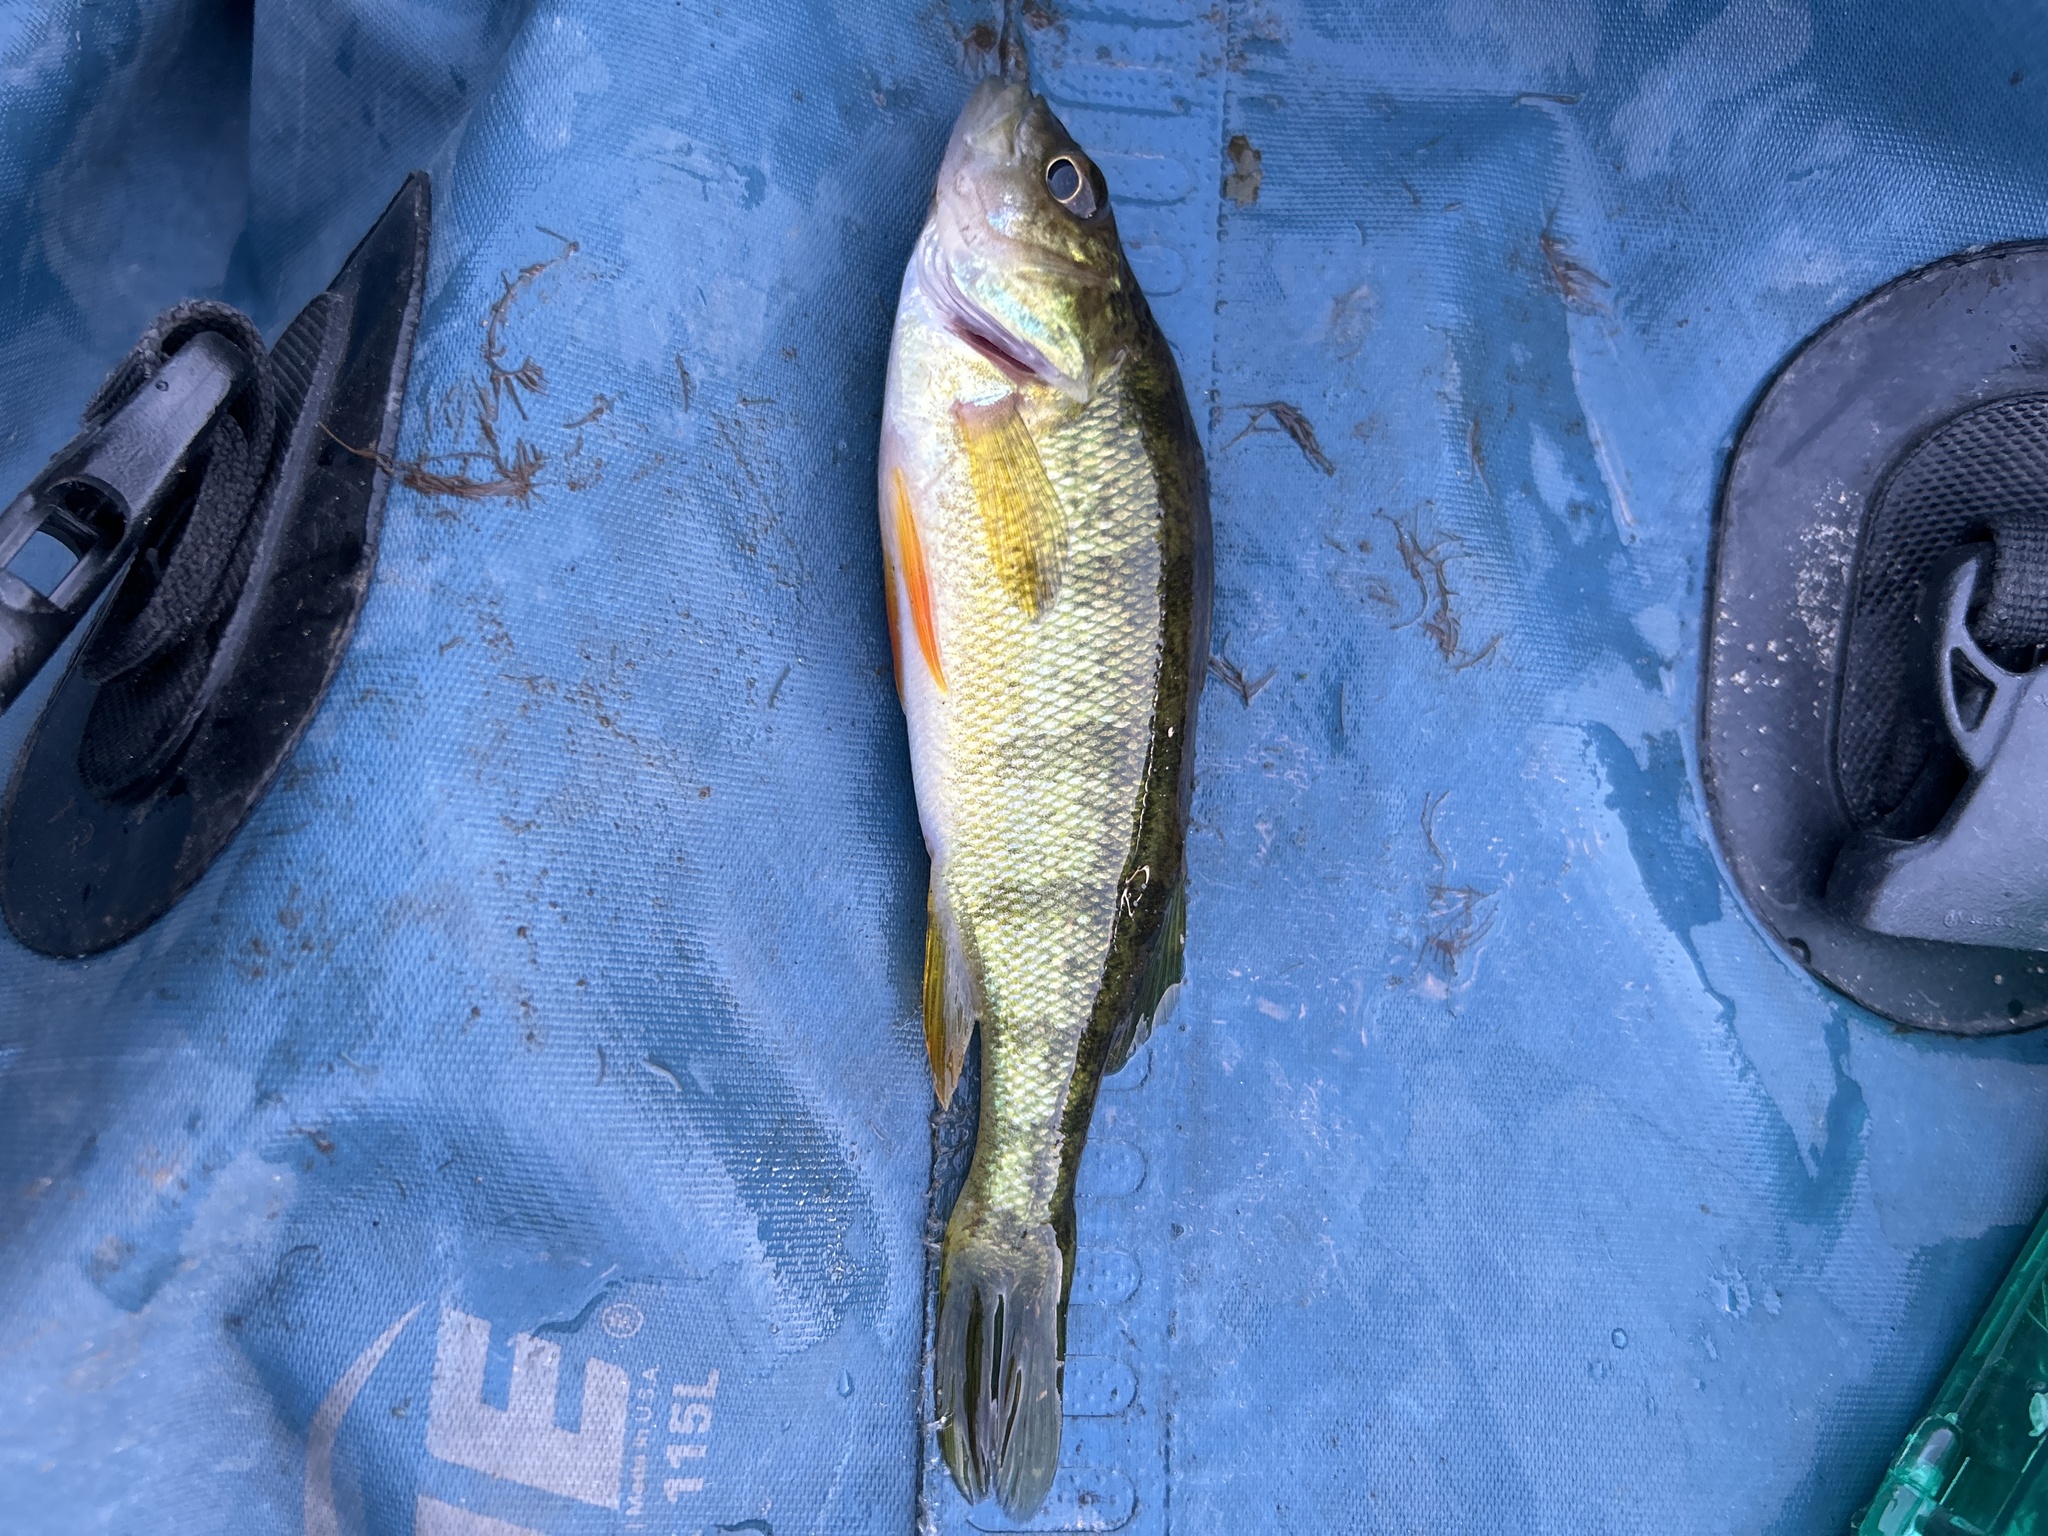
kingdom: Animalia
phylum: Chordata
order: Perciformes
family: Percidae
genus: Perca
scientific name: Perca flavescens
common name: Yellow perch
